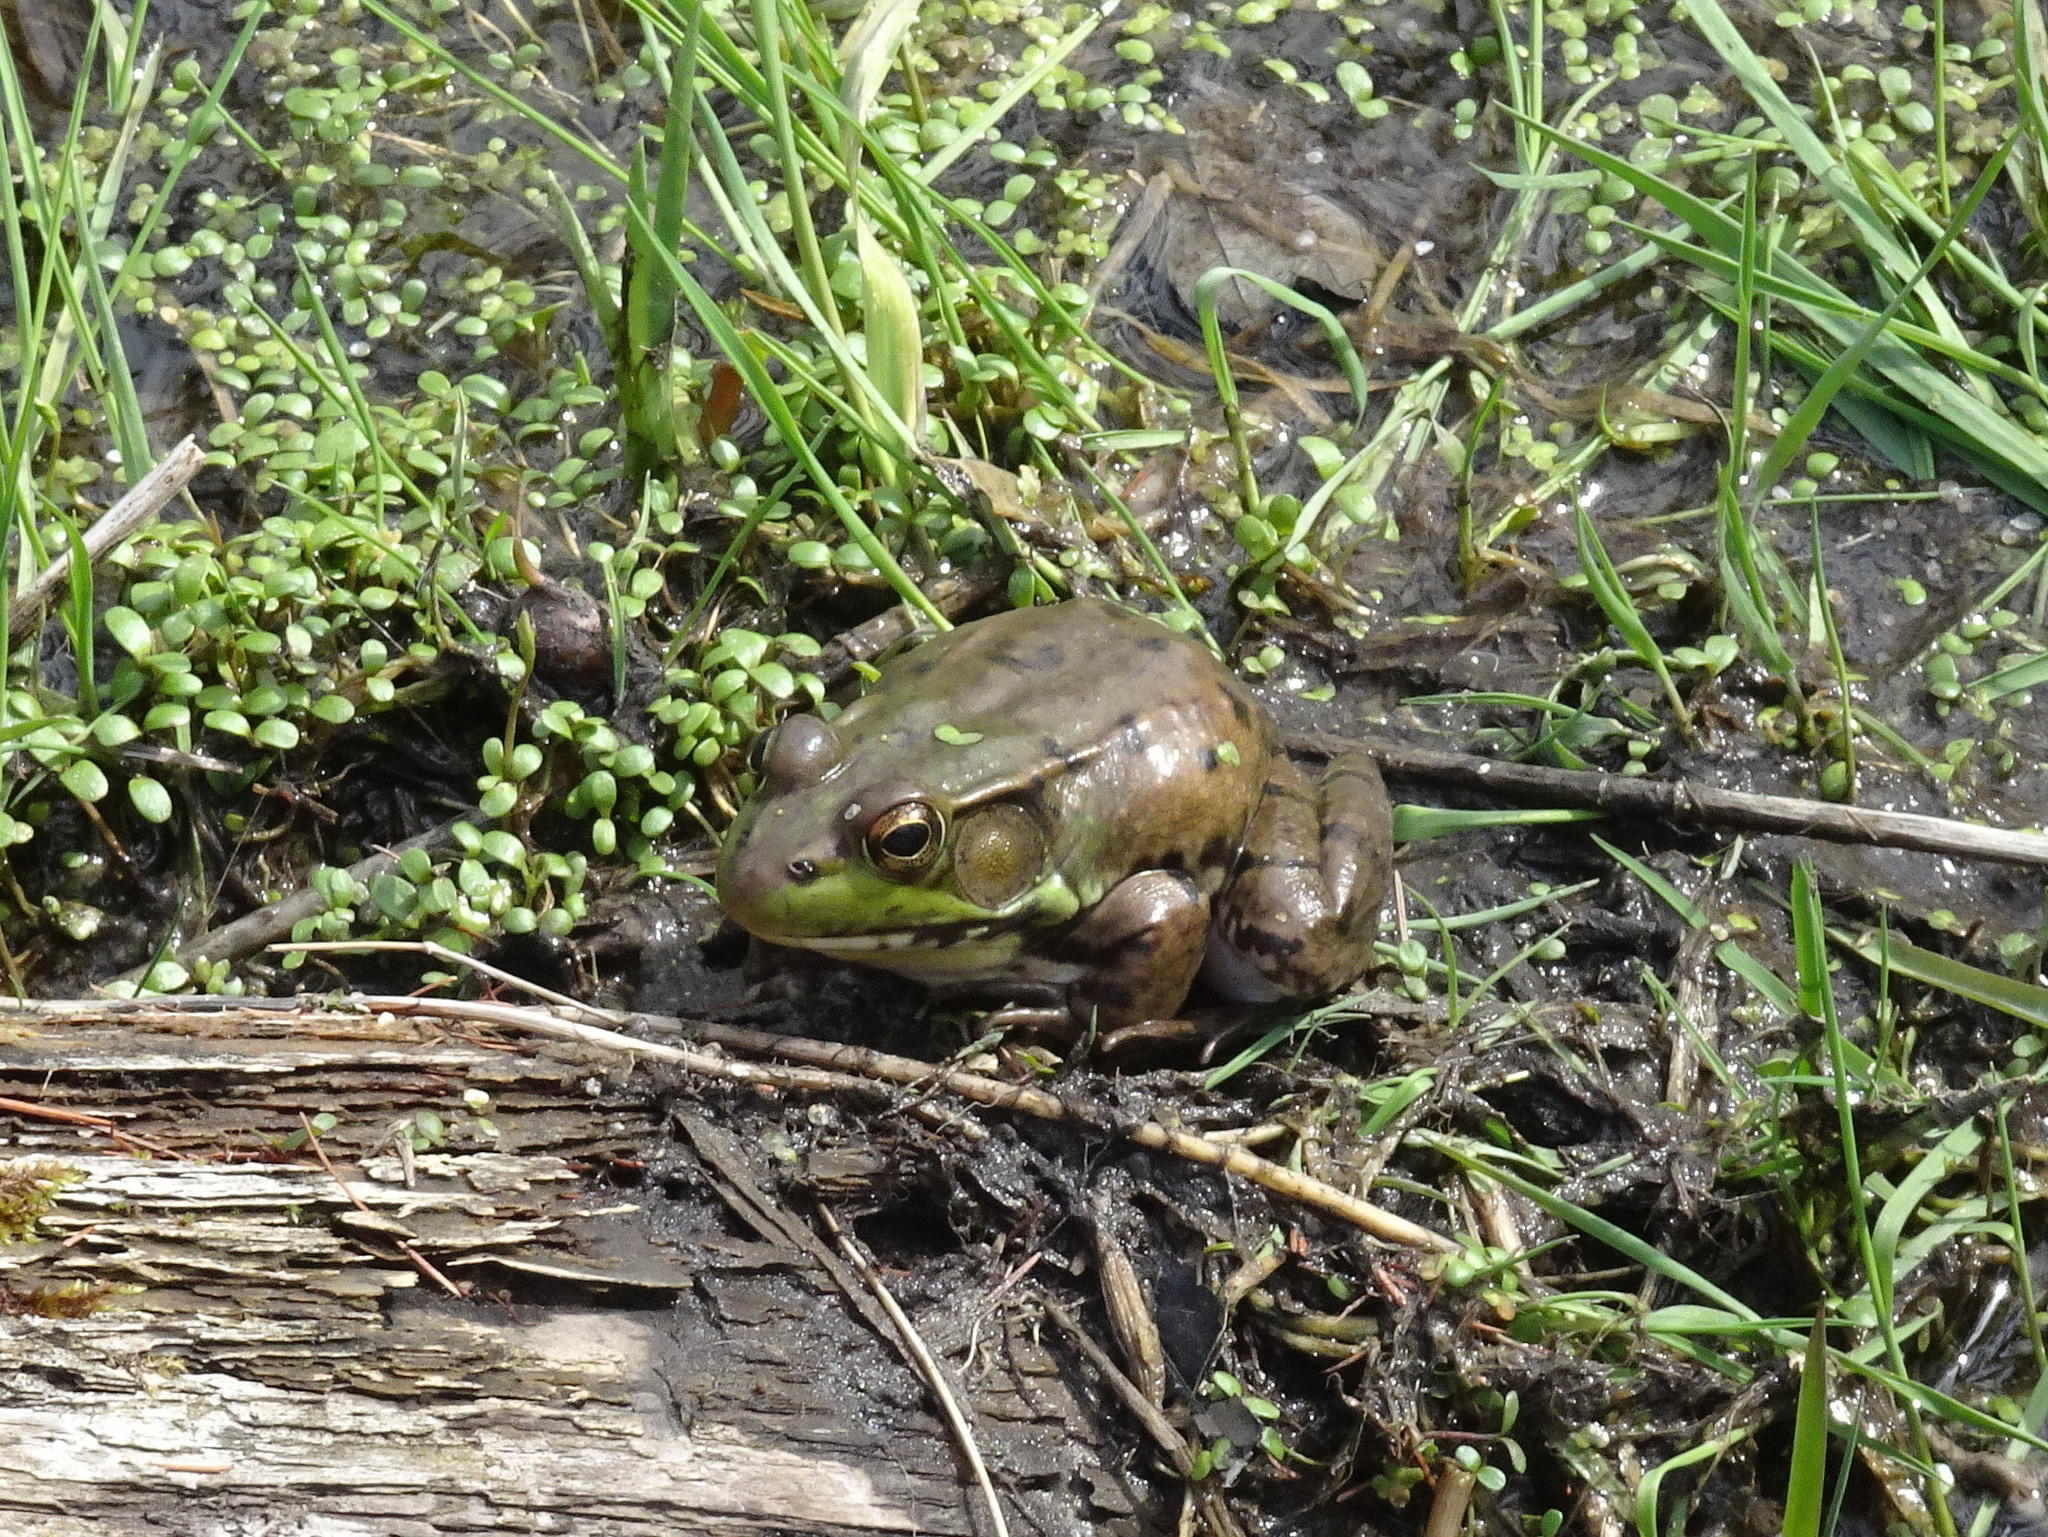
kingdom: Animalia
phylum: Chordata
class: Amphibia
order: Anura
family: Ranidae
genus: Lithobates
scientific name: Lithobates clamitans
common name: Green frog
